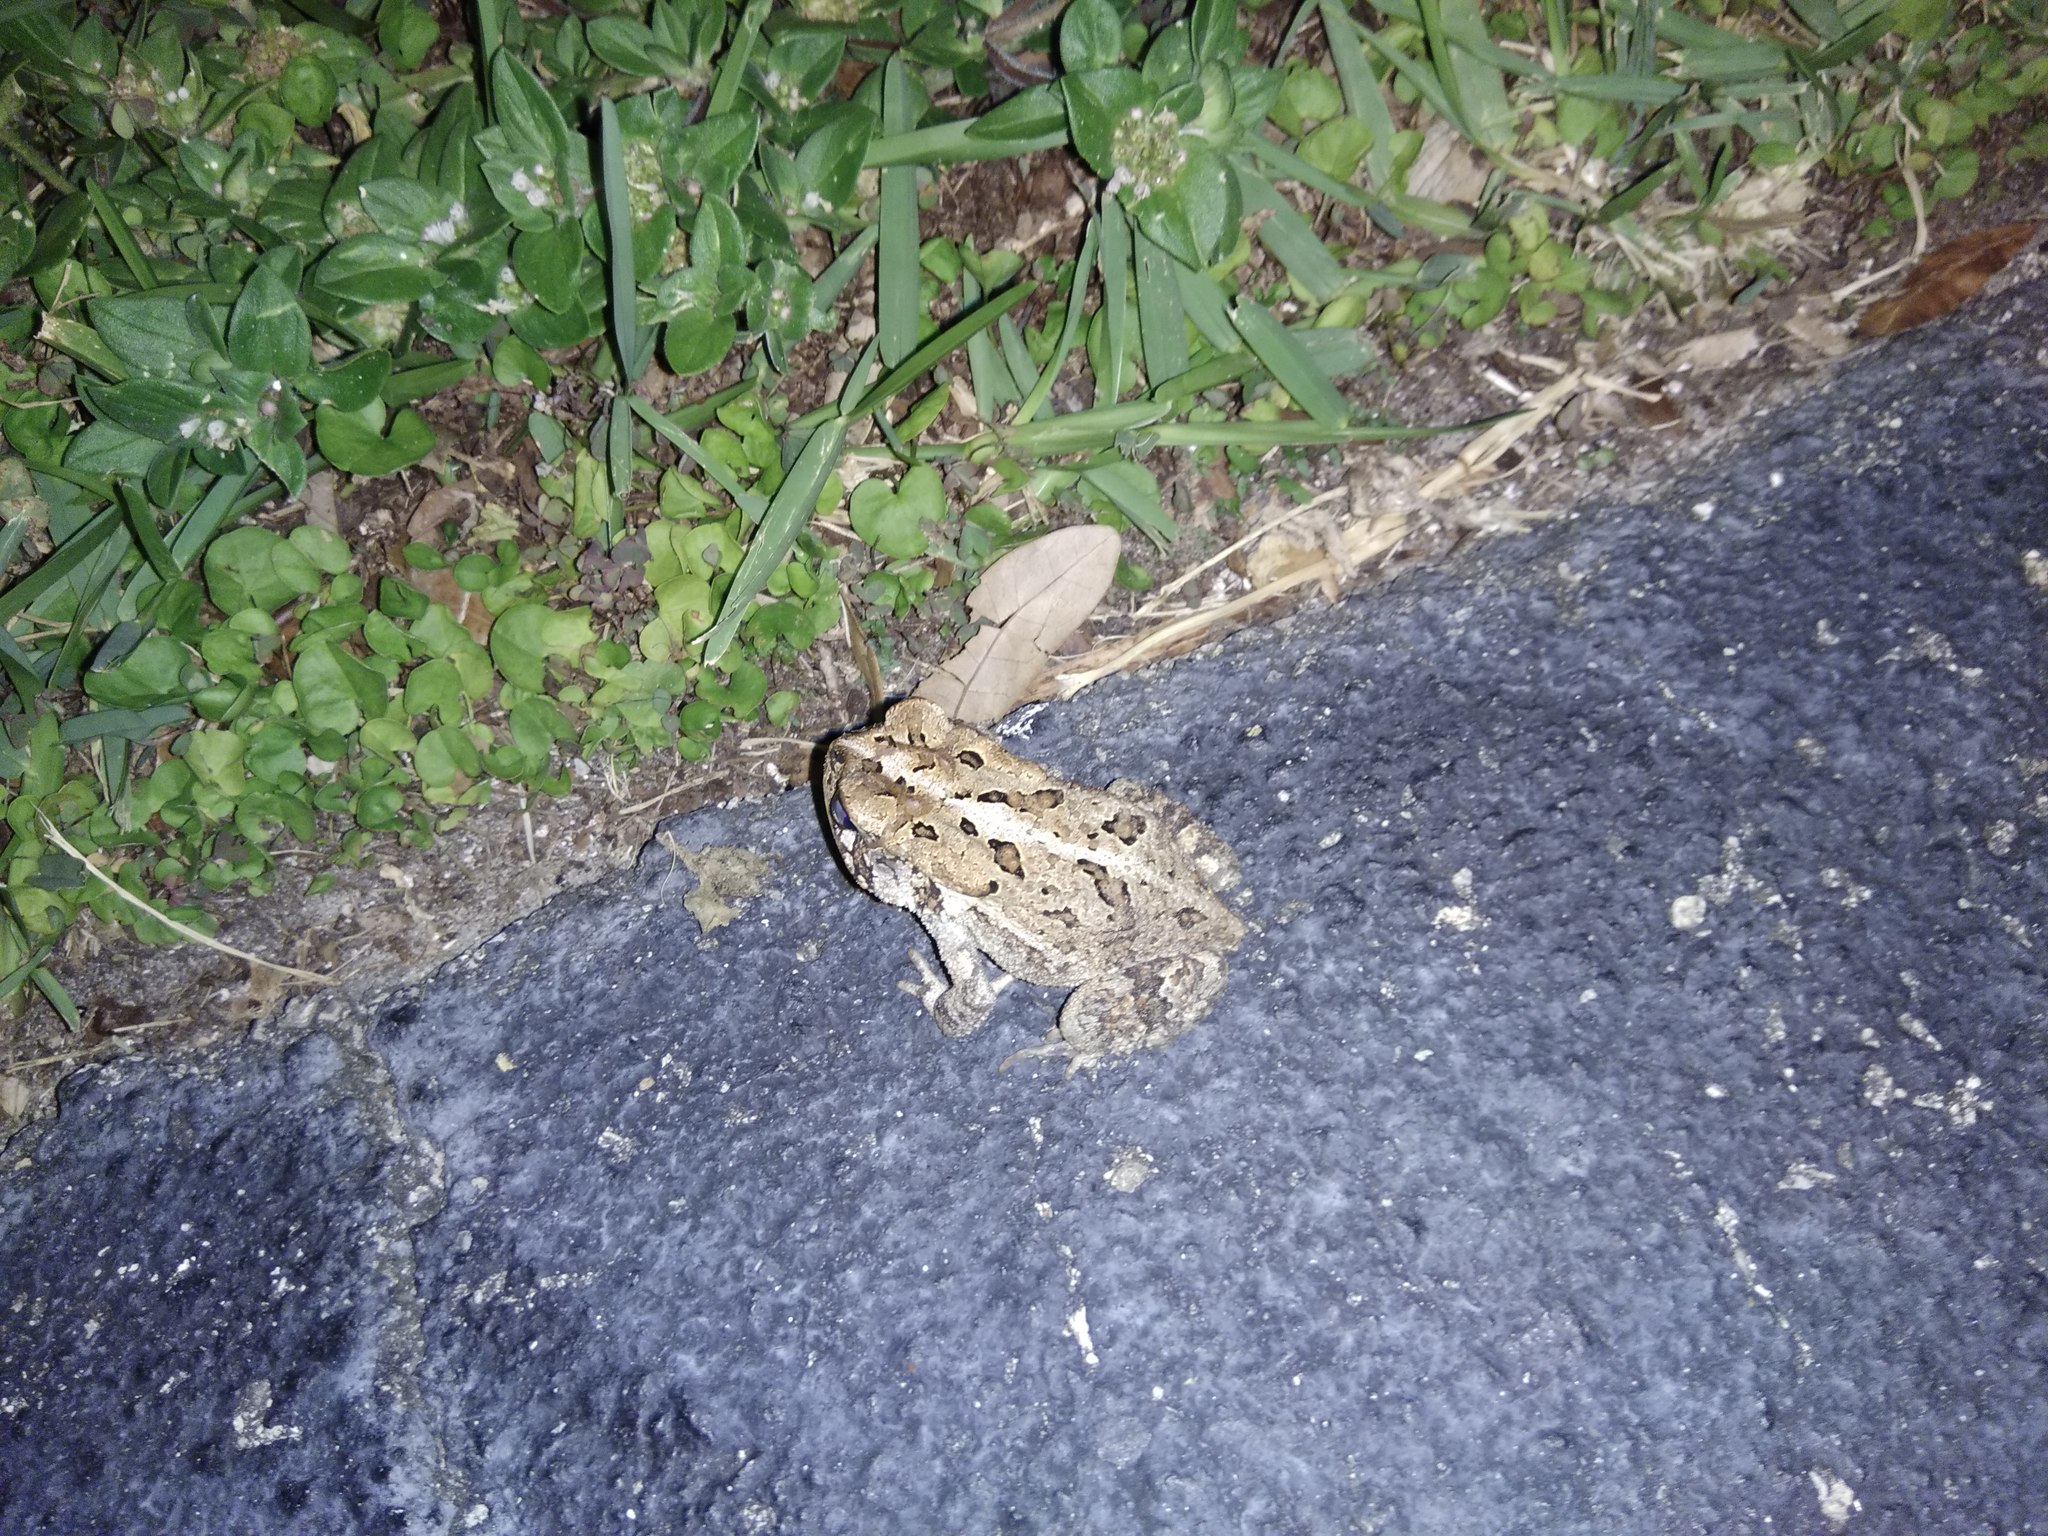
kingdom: Animalia
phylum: Chordata
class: Amphibia
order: Anura
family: Bufonidae
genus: Anaxyrus
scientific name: Anaxyrus terrestris
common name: Southern toad
